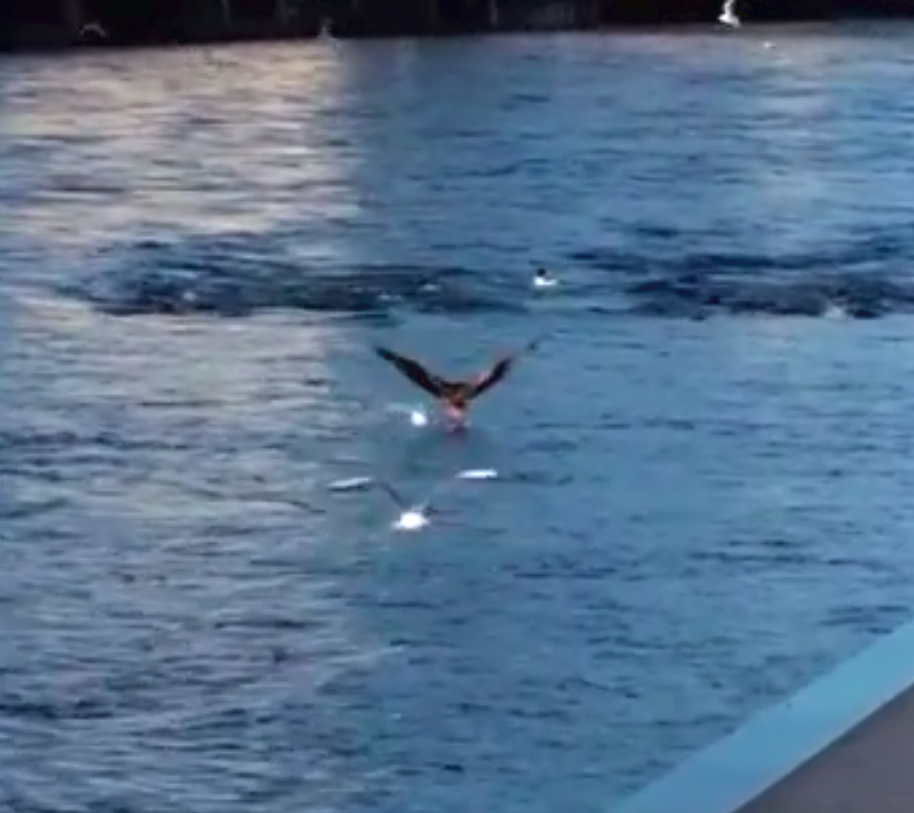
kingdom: Animalia
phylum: Chordata
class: Aves
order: Accipitriformes
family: Accipitridae
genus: Milvus
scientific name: Milvus milvus
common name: Red kite
